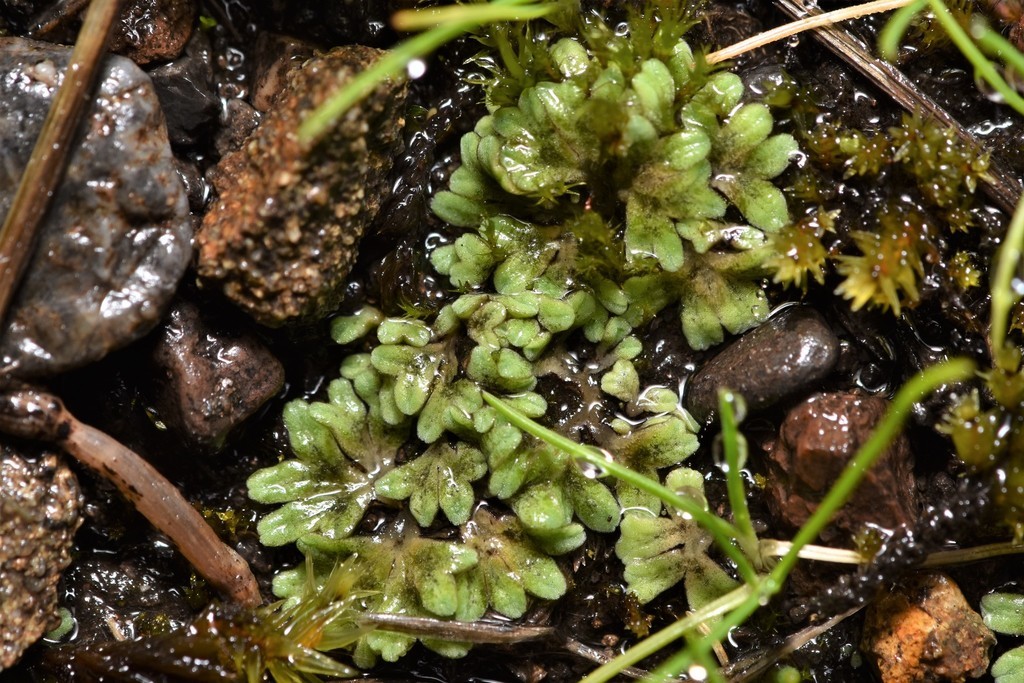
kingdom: Plantae
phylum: Marchantiophyta
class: Marchantiopsida
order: Marchantiales
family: Ricciaceae
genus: Riccia
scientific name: Riccia sorocarpa
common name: Common crystalwort
